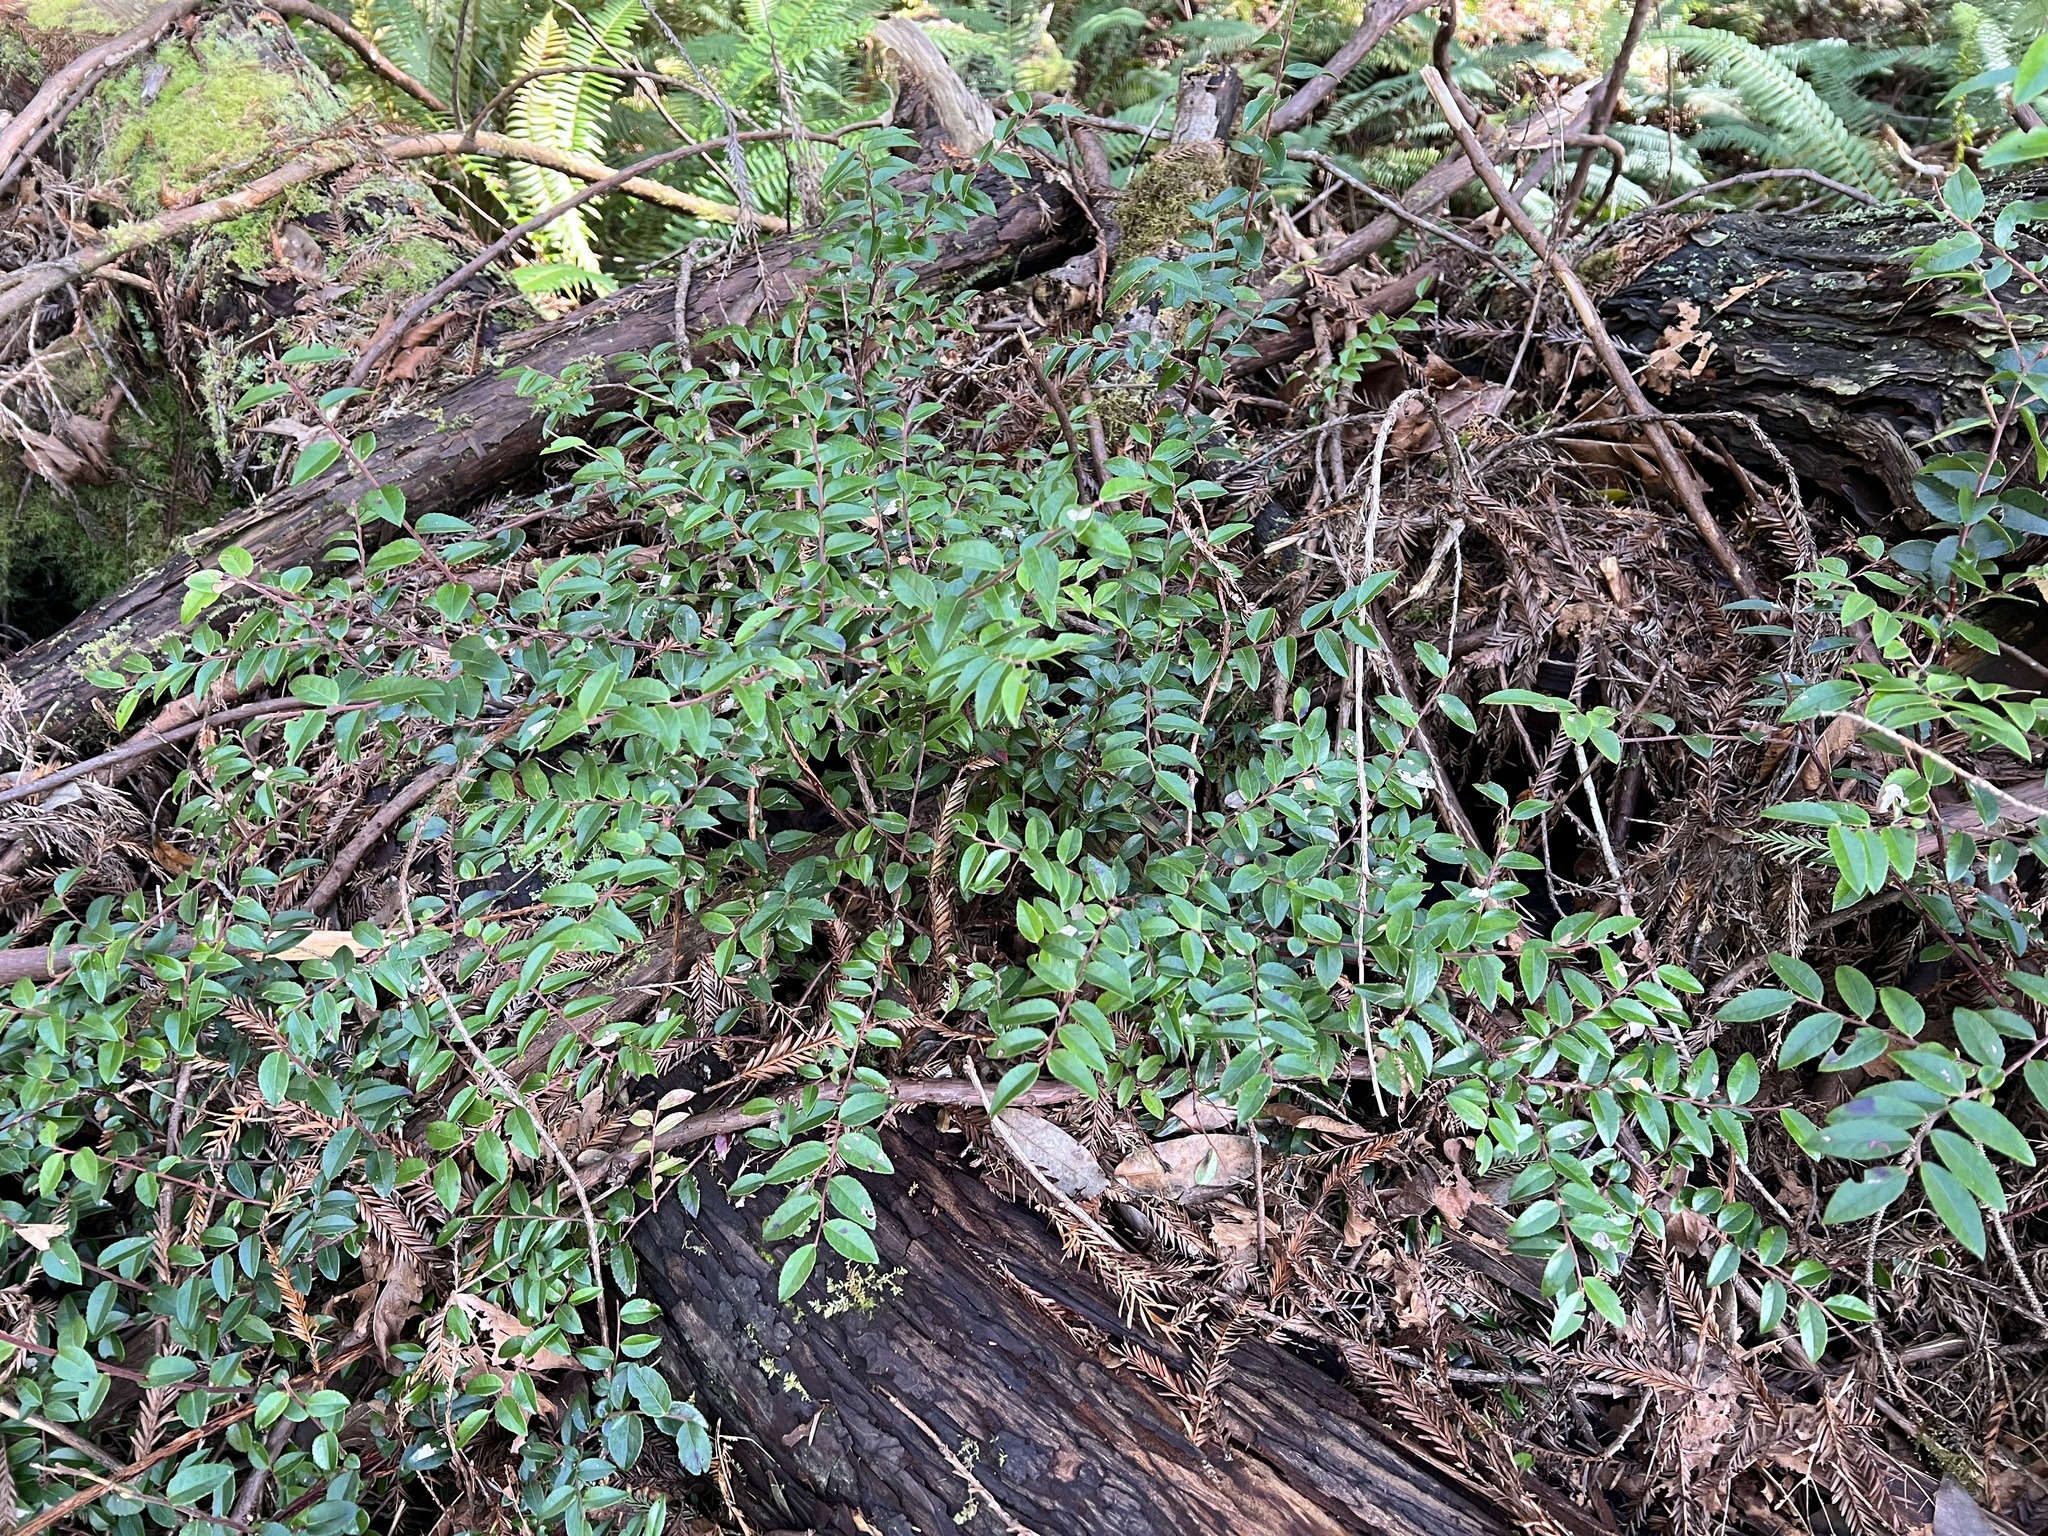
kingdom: Plantae
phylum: Tracheophyta
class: Magnoliopsida
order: Ericales
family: Ericaceae
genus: Vaccinium
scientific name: Vaccinium ovatum
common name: California-huckleberry
